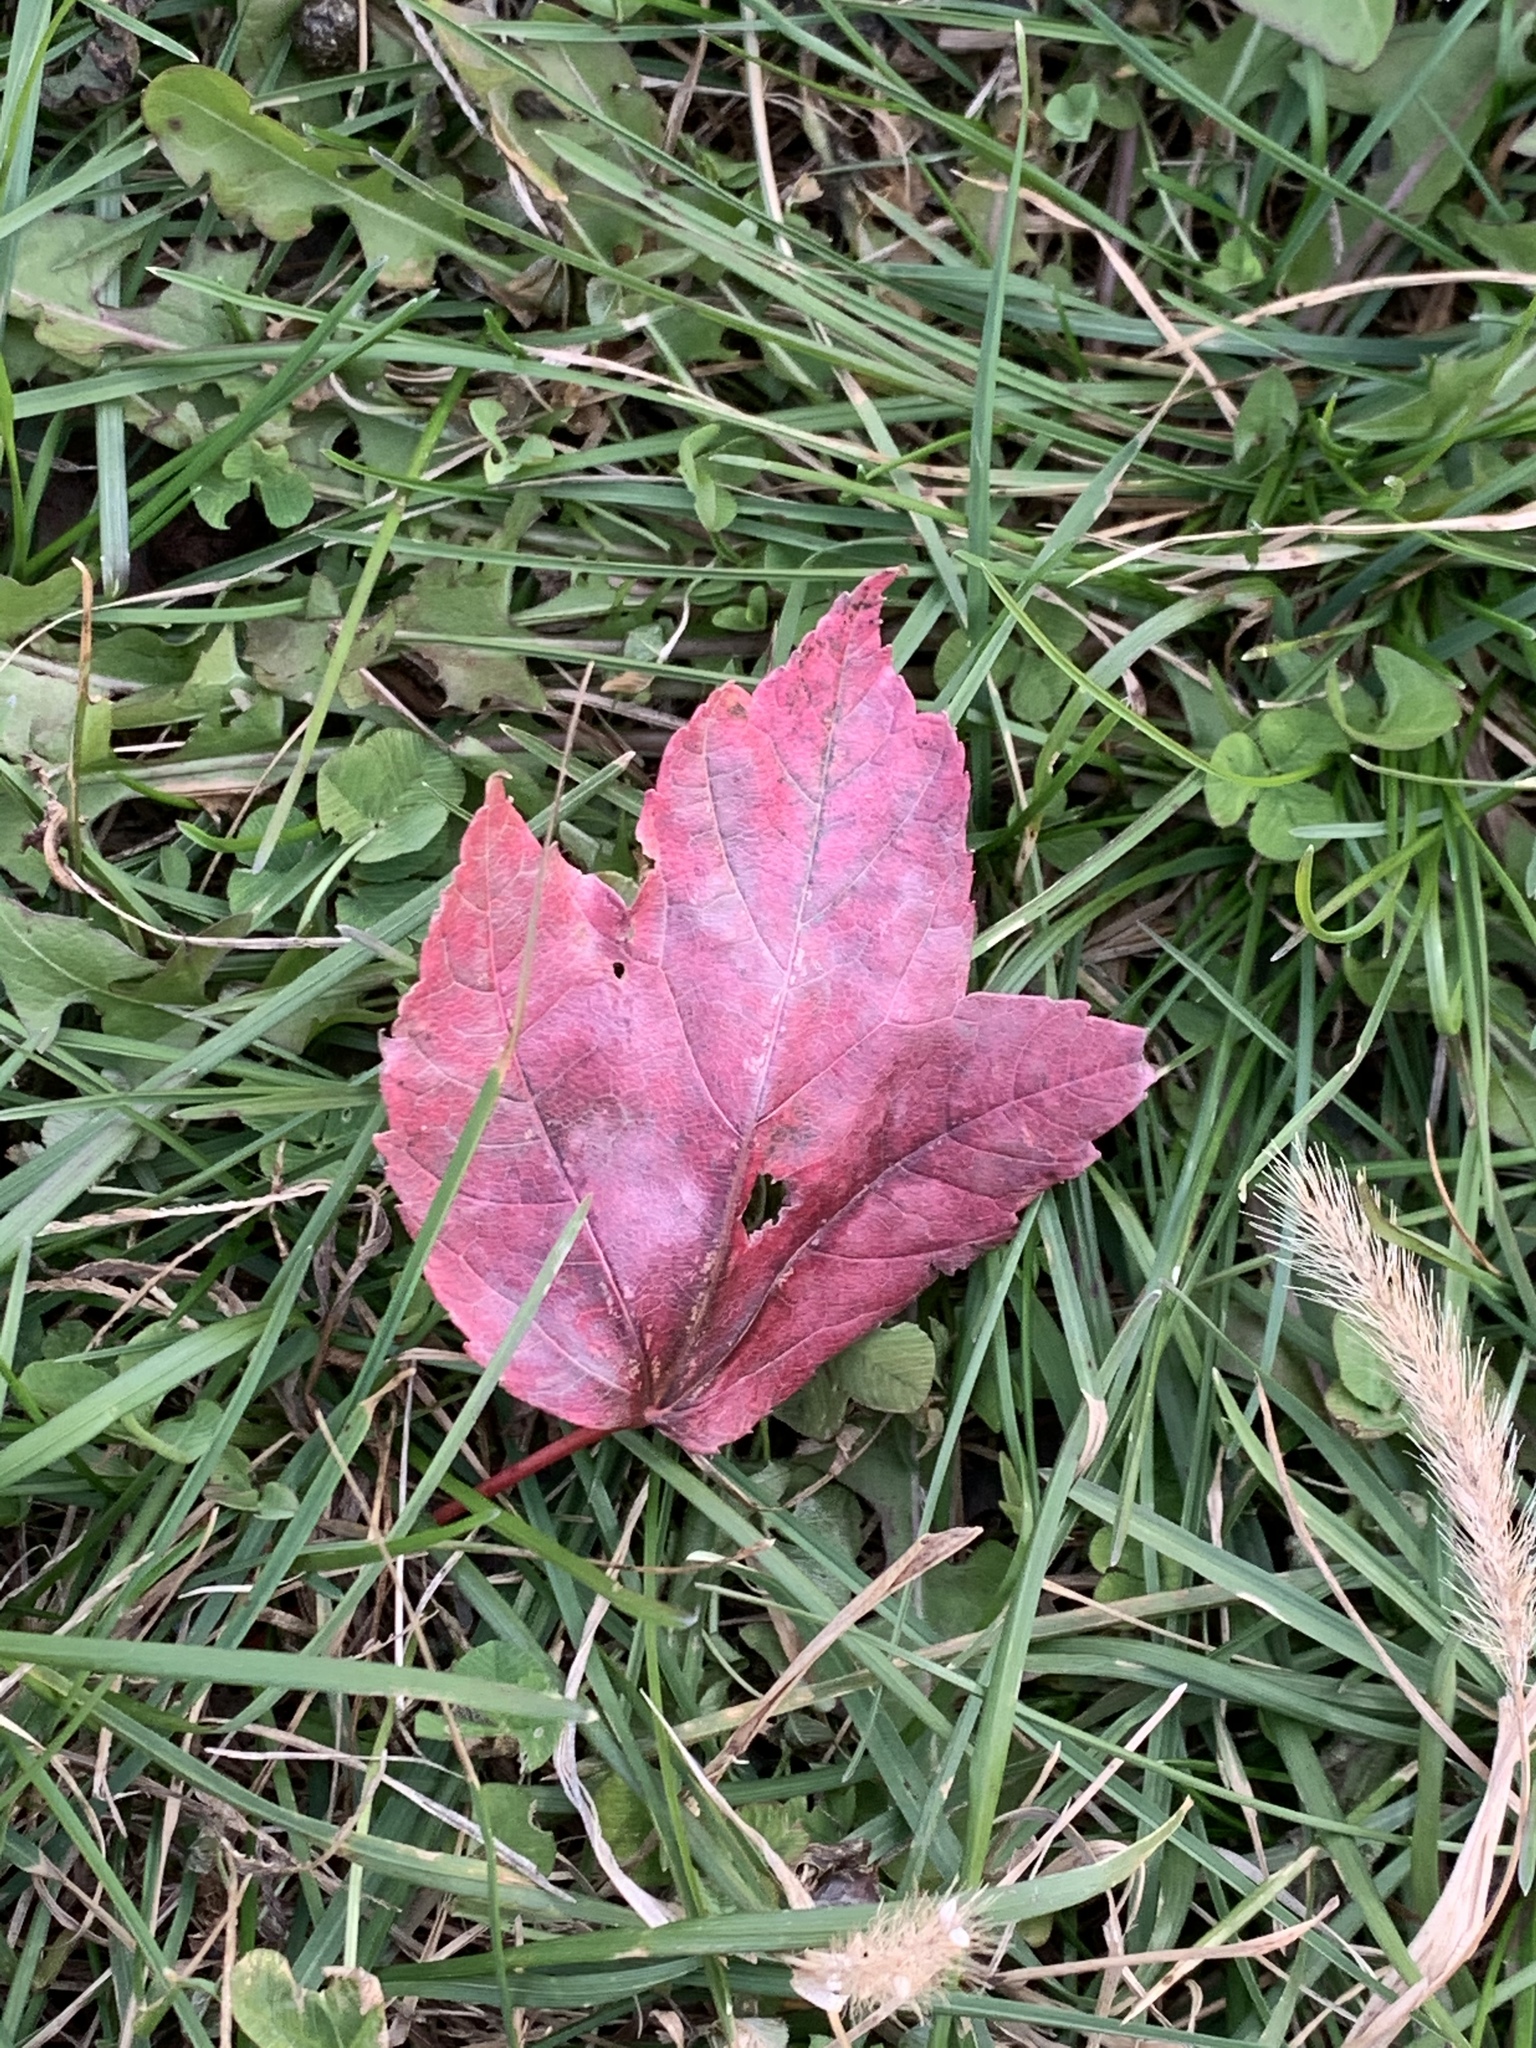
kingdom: Plantae
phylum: Tracheophyta
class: Magnoliopsida
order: Sapindales
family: Sapindaceae
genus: Acer
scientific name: Acer rubrum
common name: Red maple
